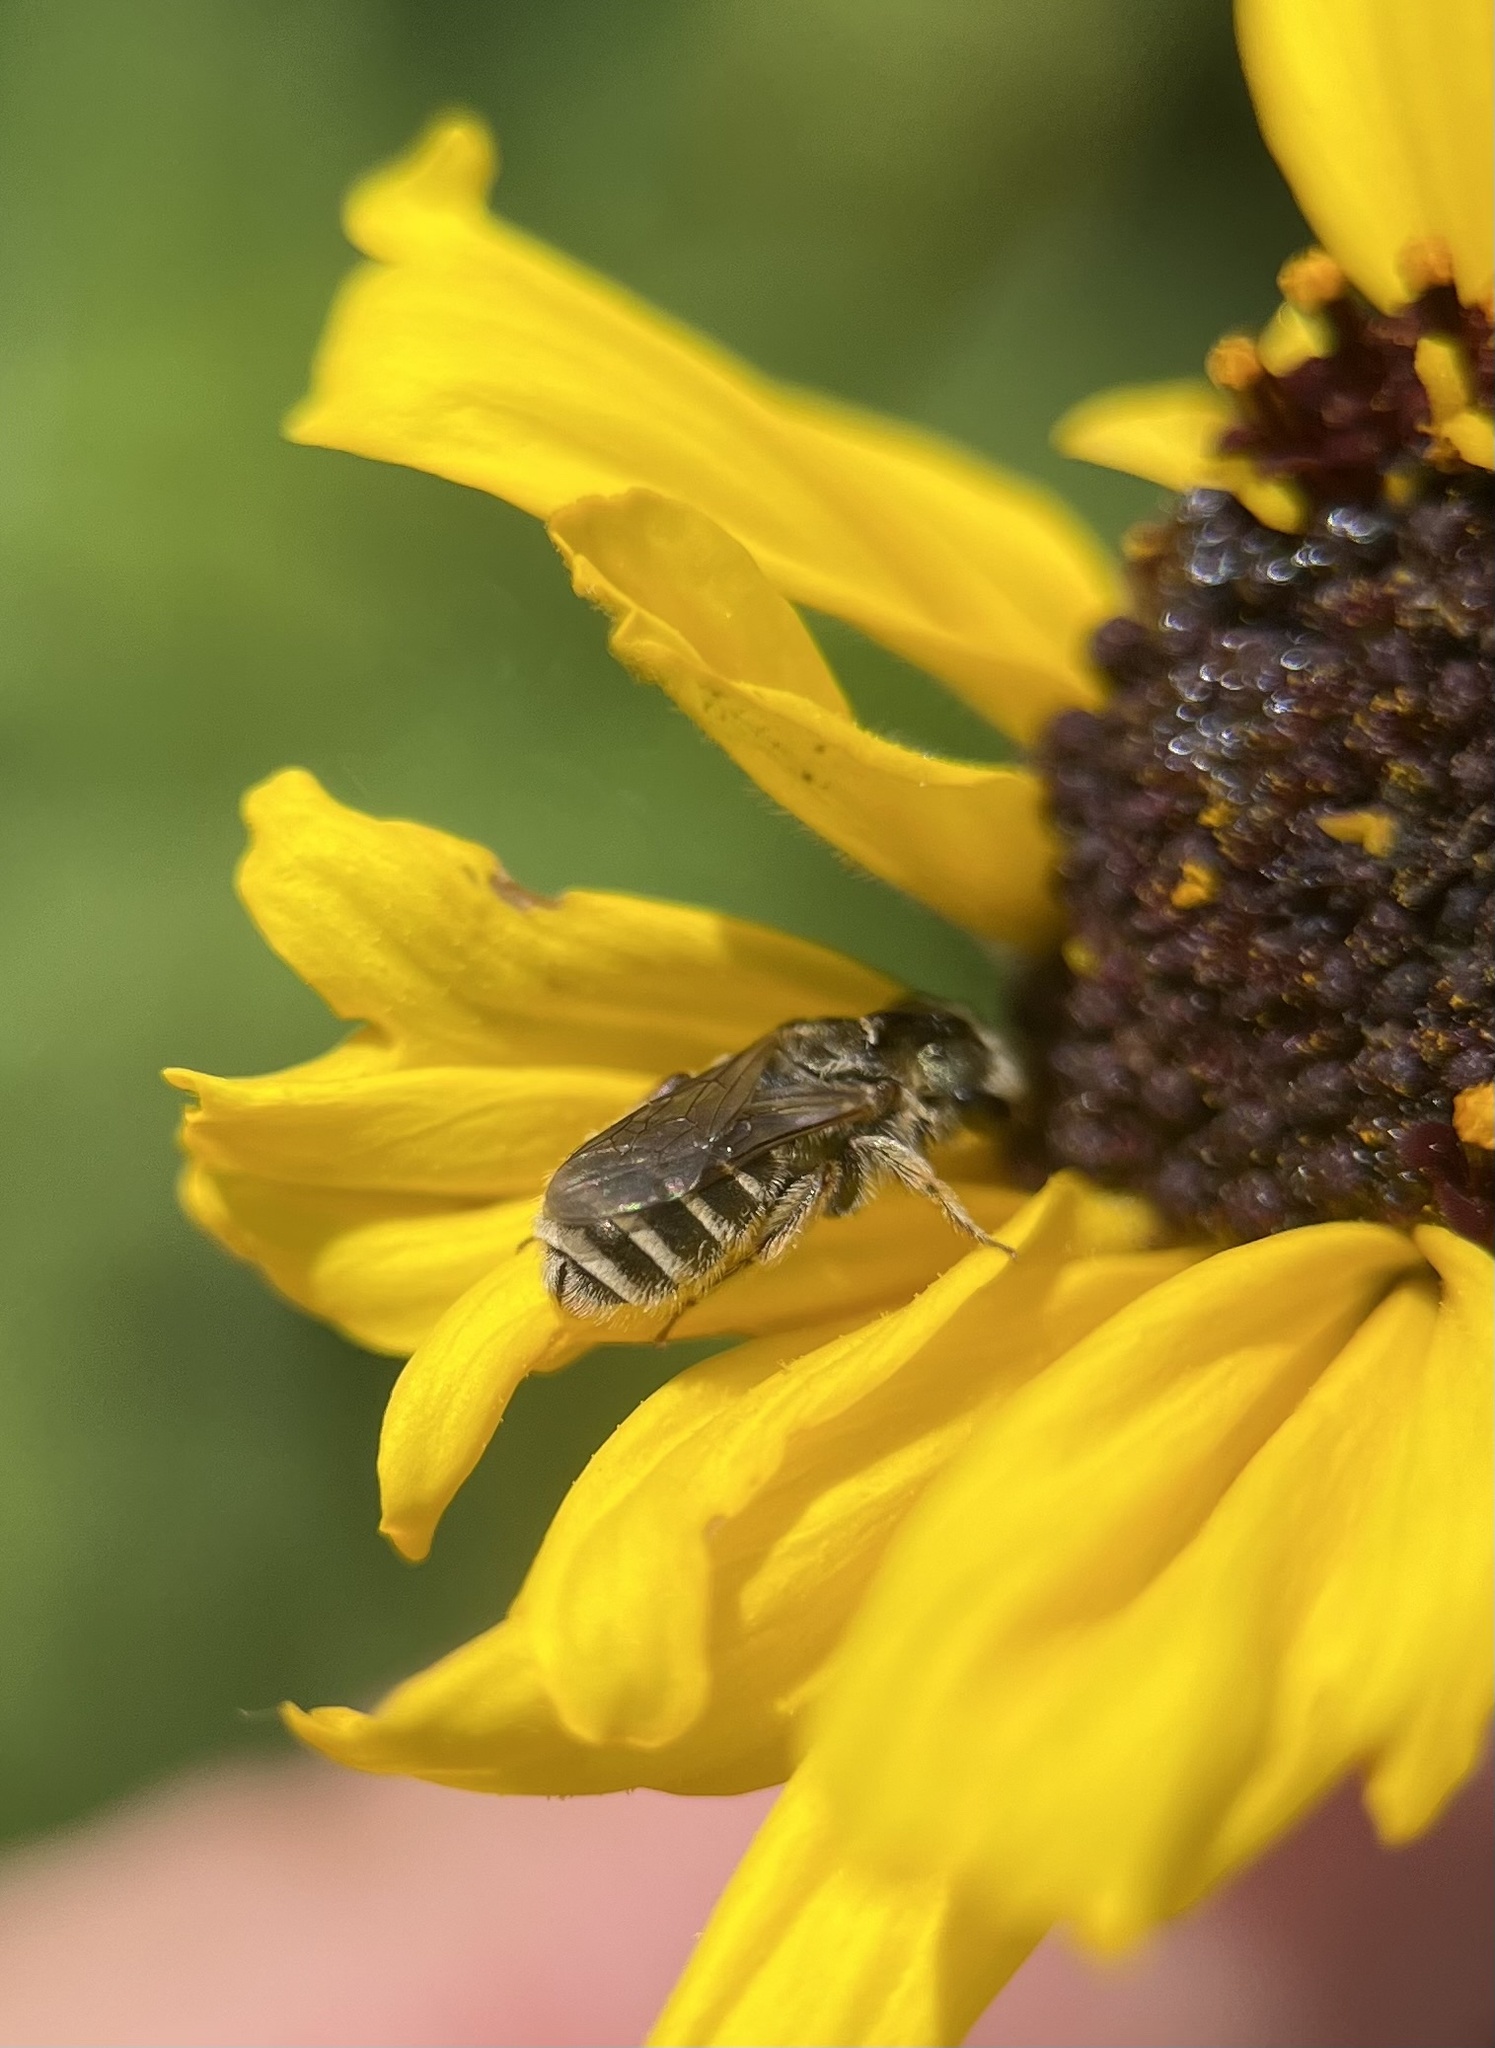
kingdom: Animalia
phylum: Arthropoda
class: Insecta
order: Hymenoptera
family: Halictidae
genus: Halictus
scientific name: Halictus tripartitus
